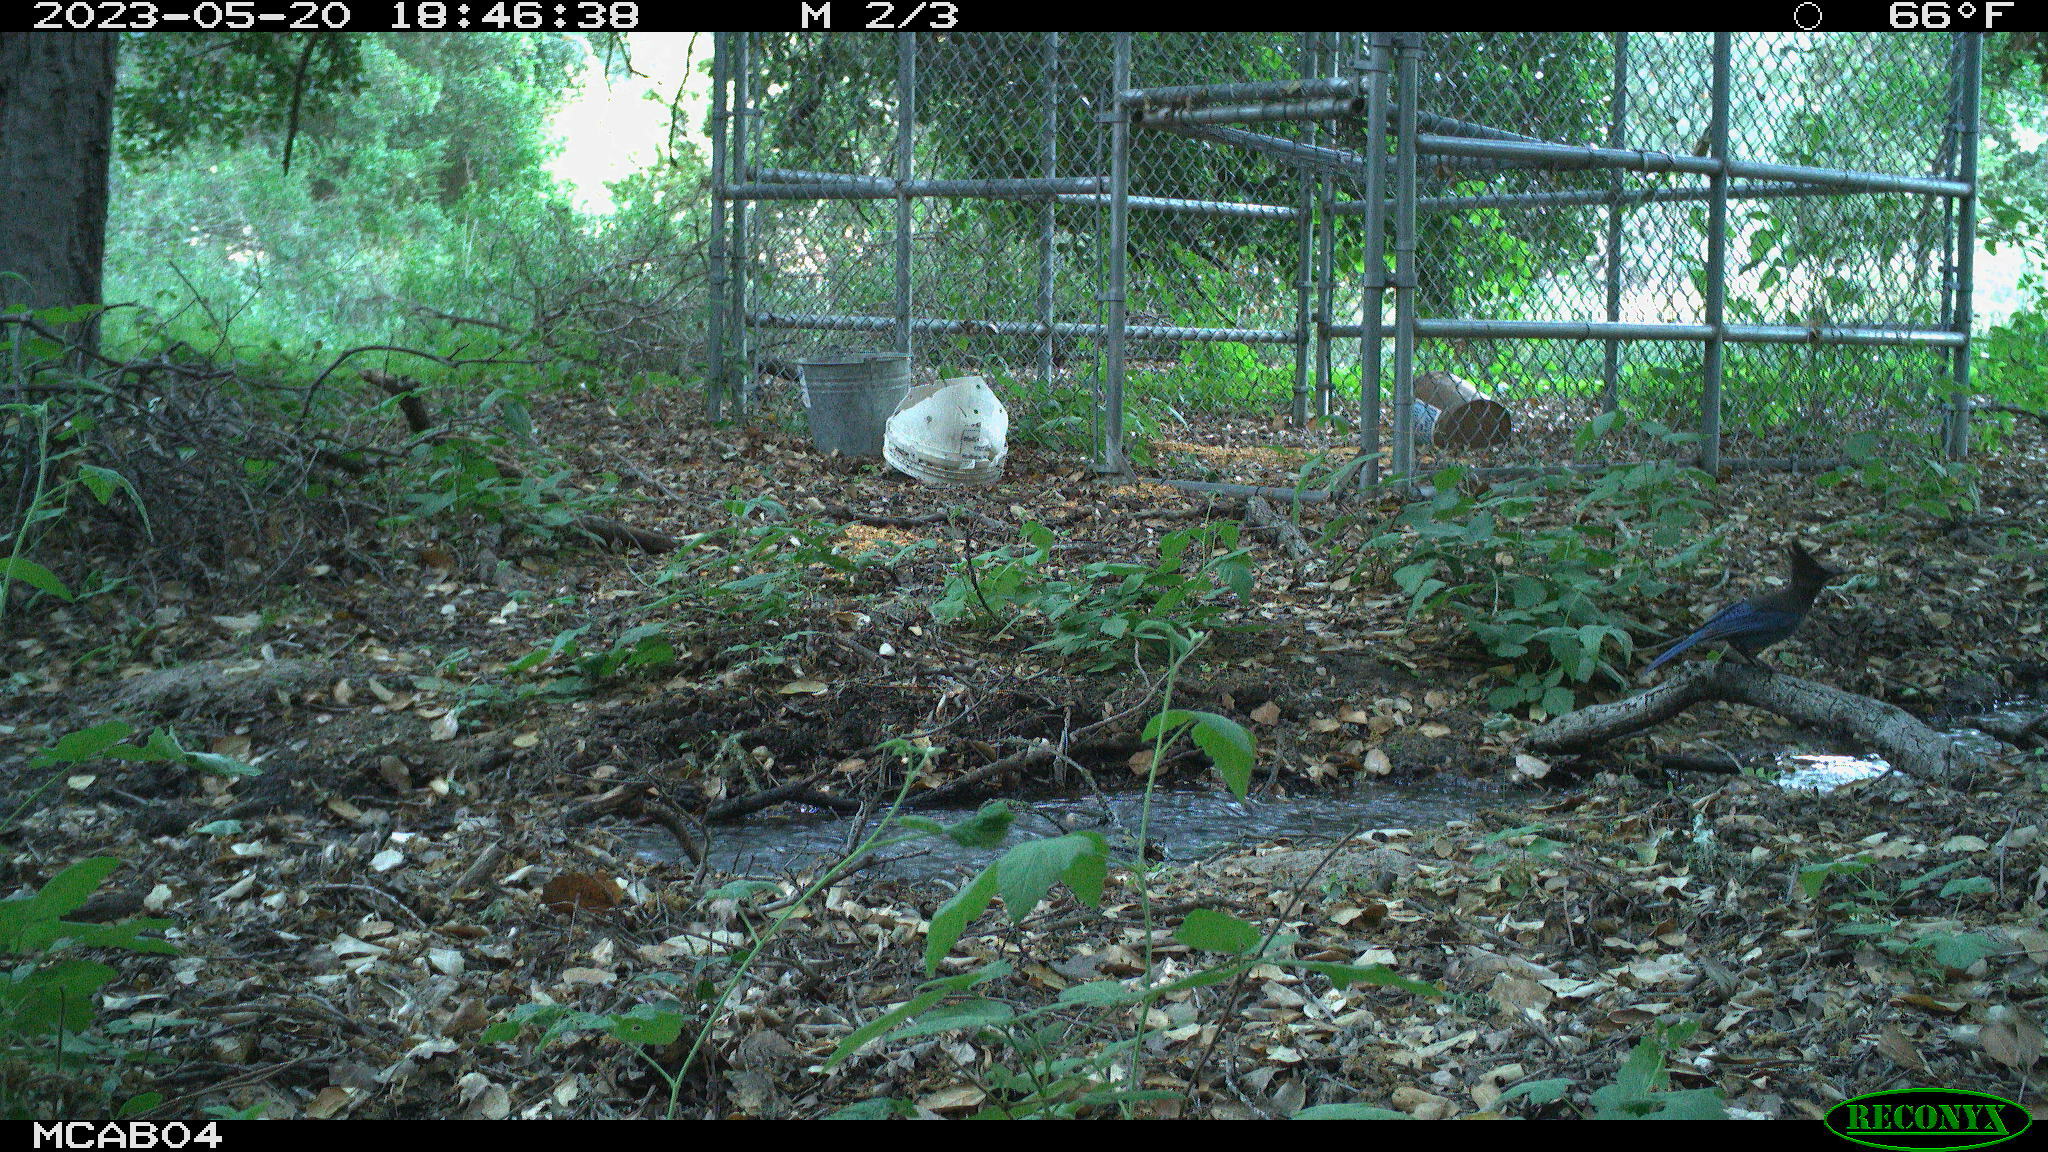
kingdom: Animalia
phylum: Chordata
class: Aves
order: Passeriformes
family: Corvidae
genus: Cyanocitta
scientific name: Cyanocitta stelleri
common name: Steller's jay
